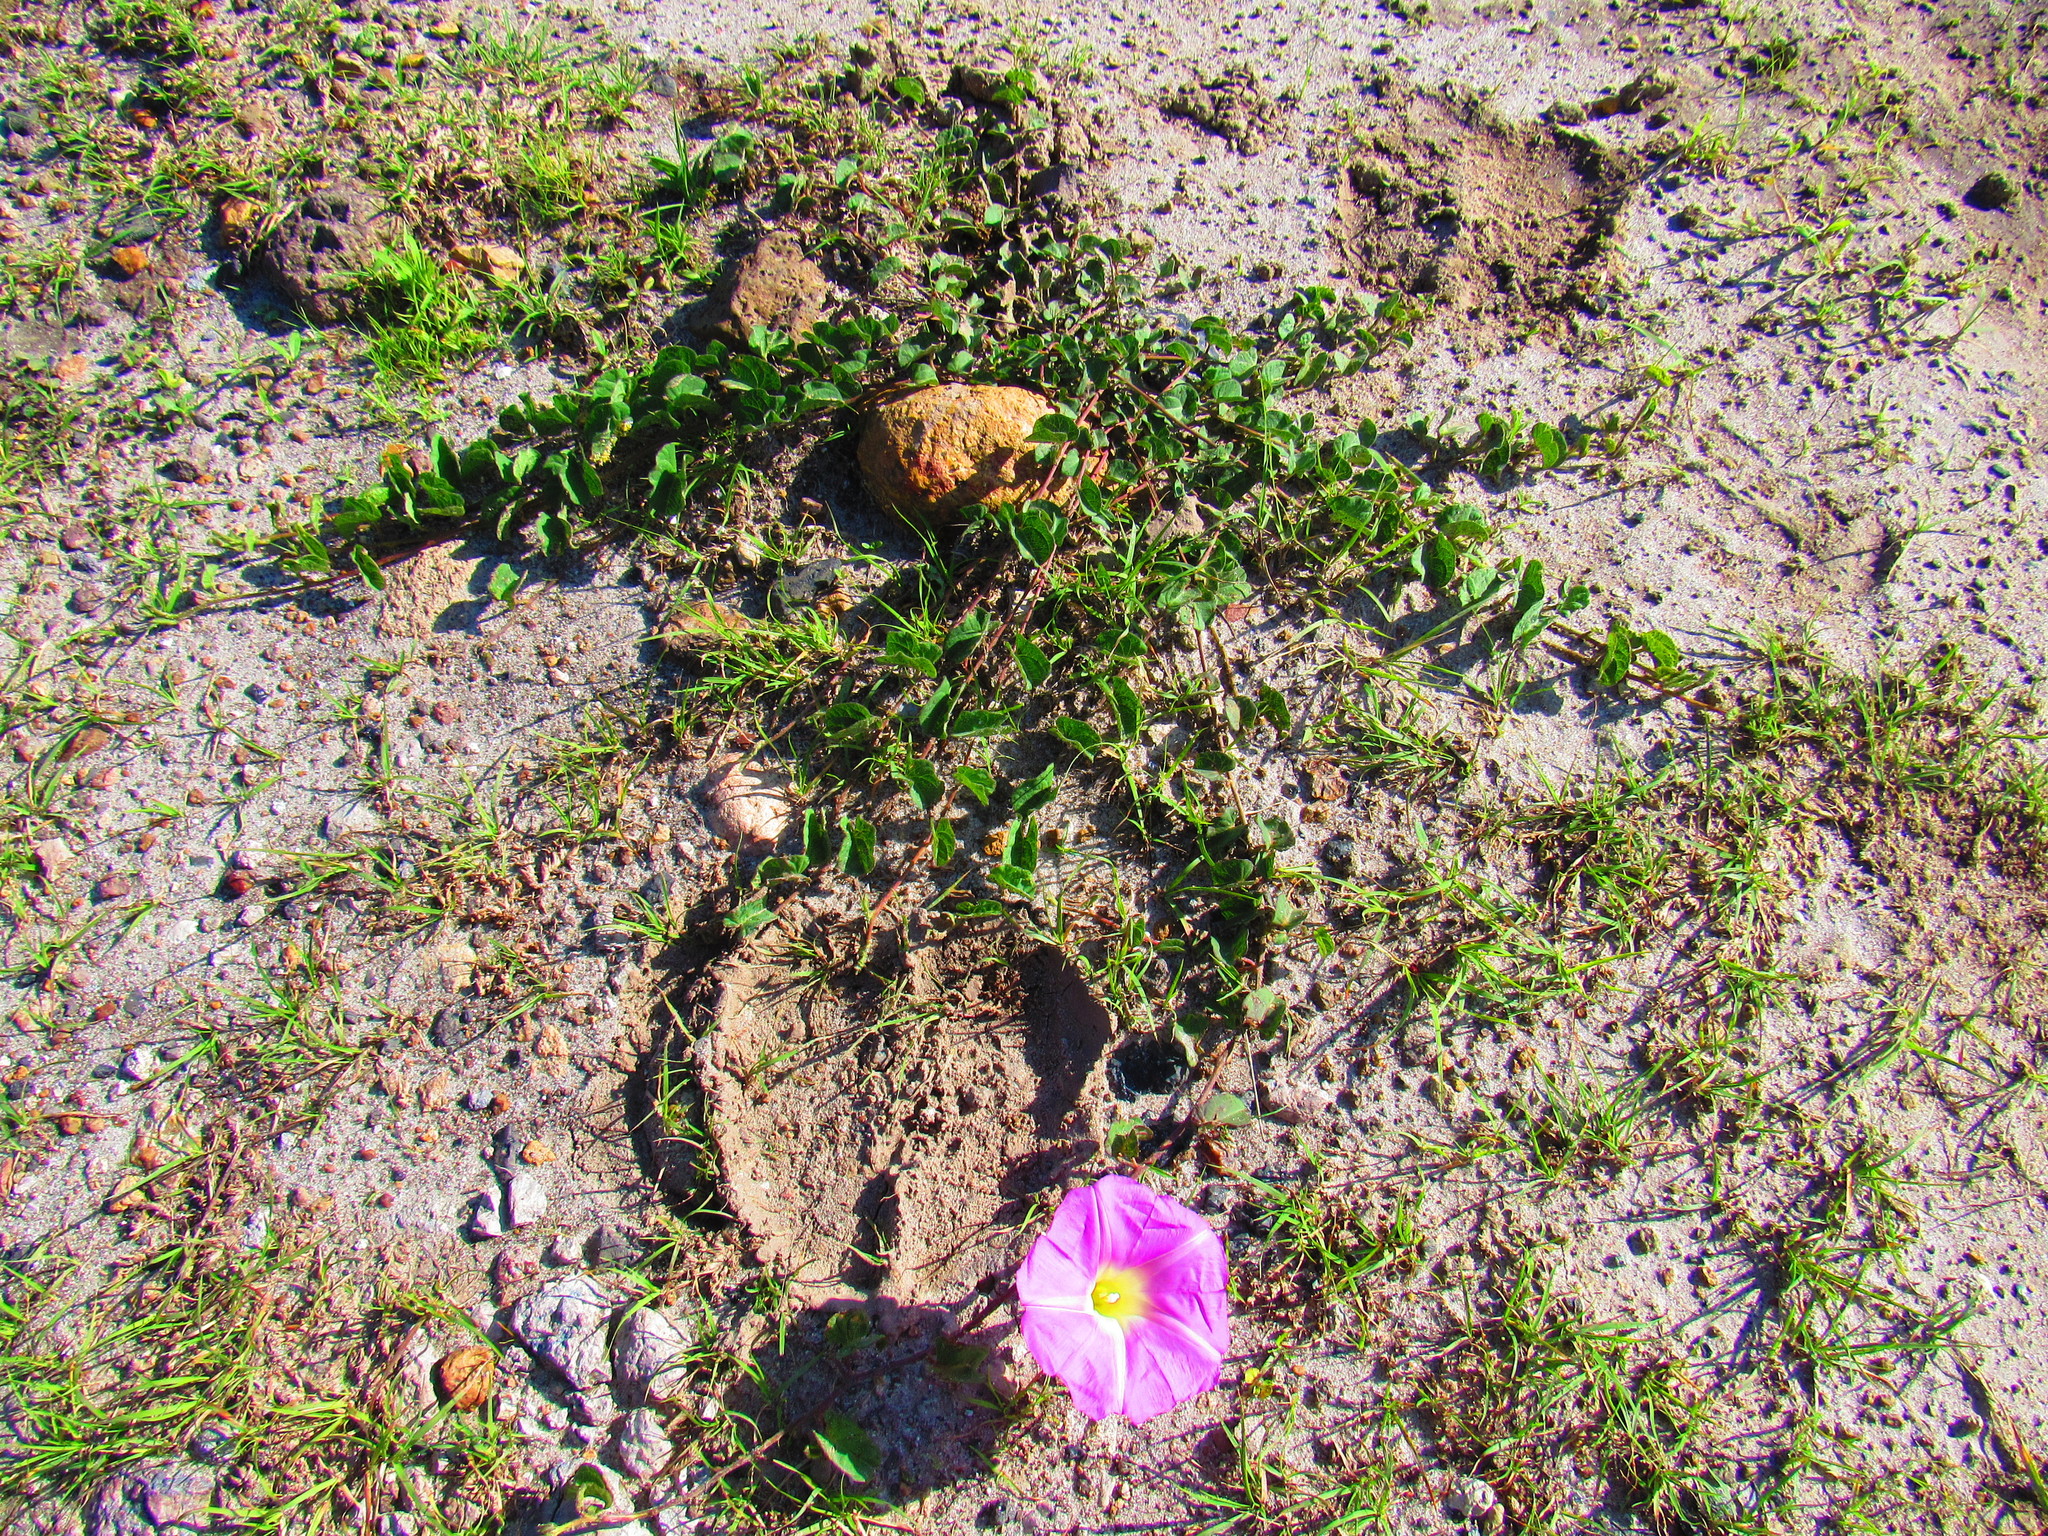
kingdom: Plantae
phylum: Tracheophyta
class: Magnoliopsida
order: Solanales
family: Convolvulaceae
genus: Ipomoea
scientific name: Ipomoea hartwegii
